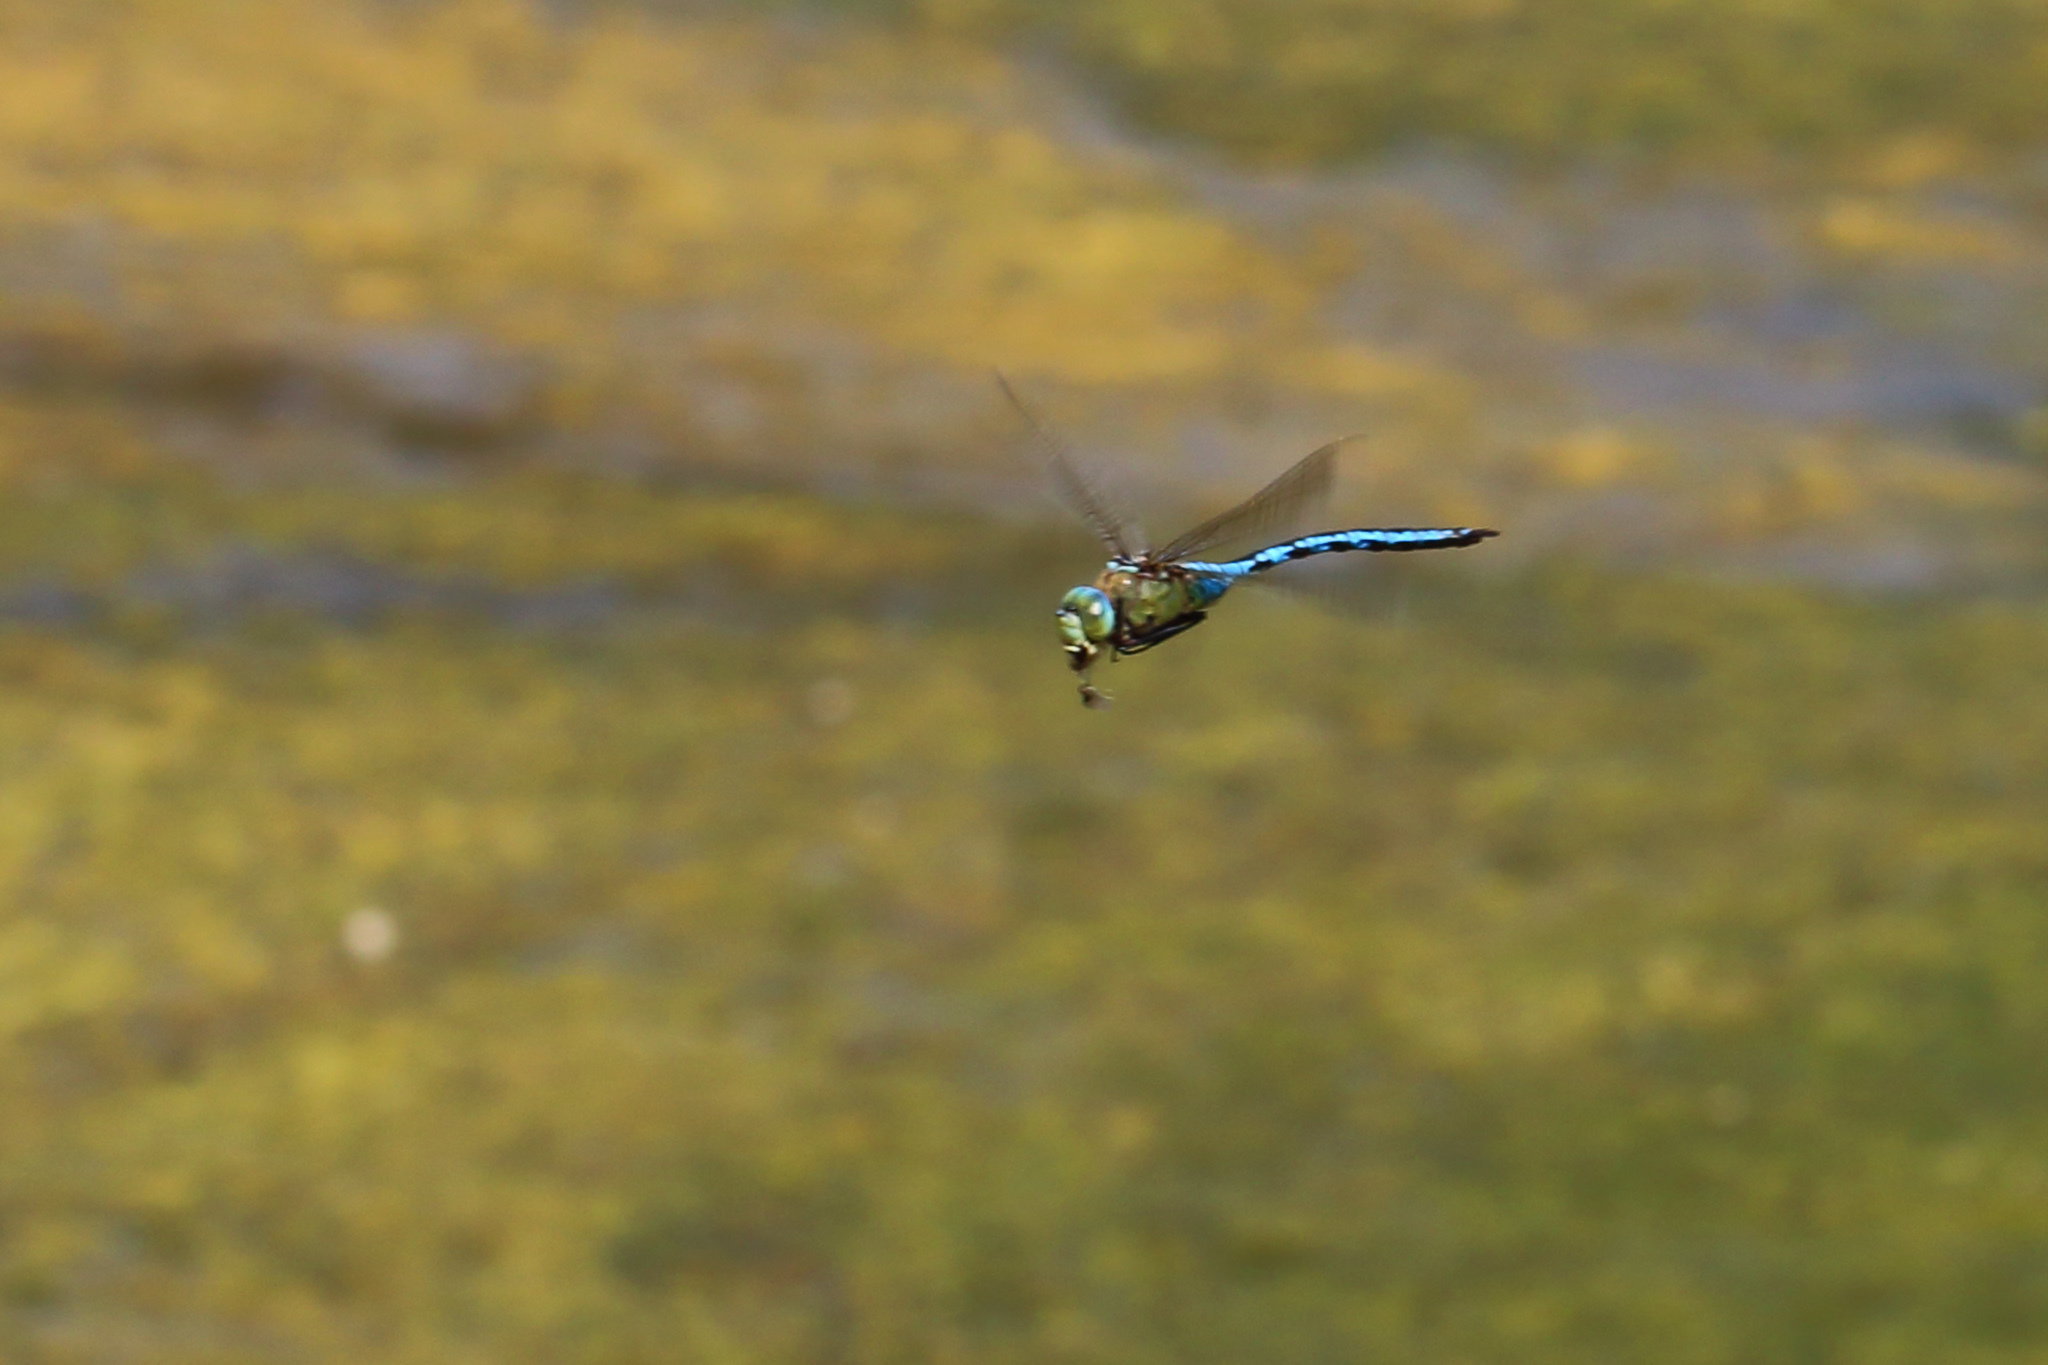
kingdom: Animalia
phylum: Arthropoda
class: Insecta
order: Odonata
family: Aeshnidae
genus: Anax
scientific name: Anax imperator
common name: Emperor dragonfly
